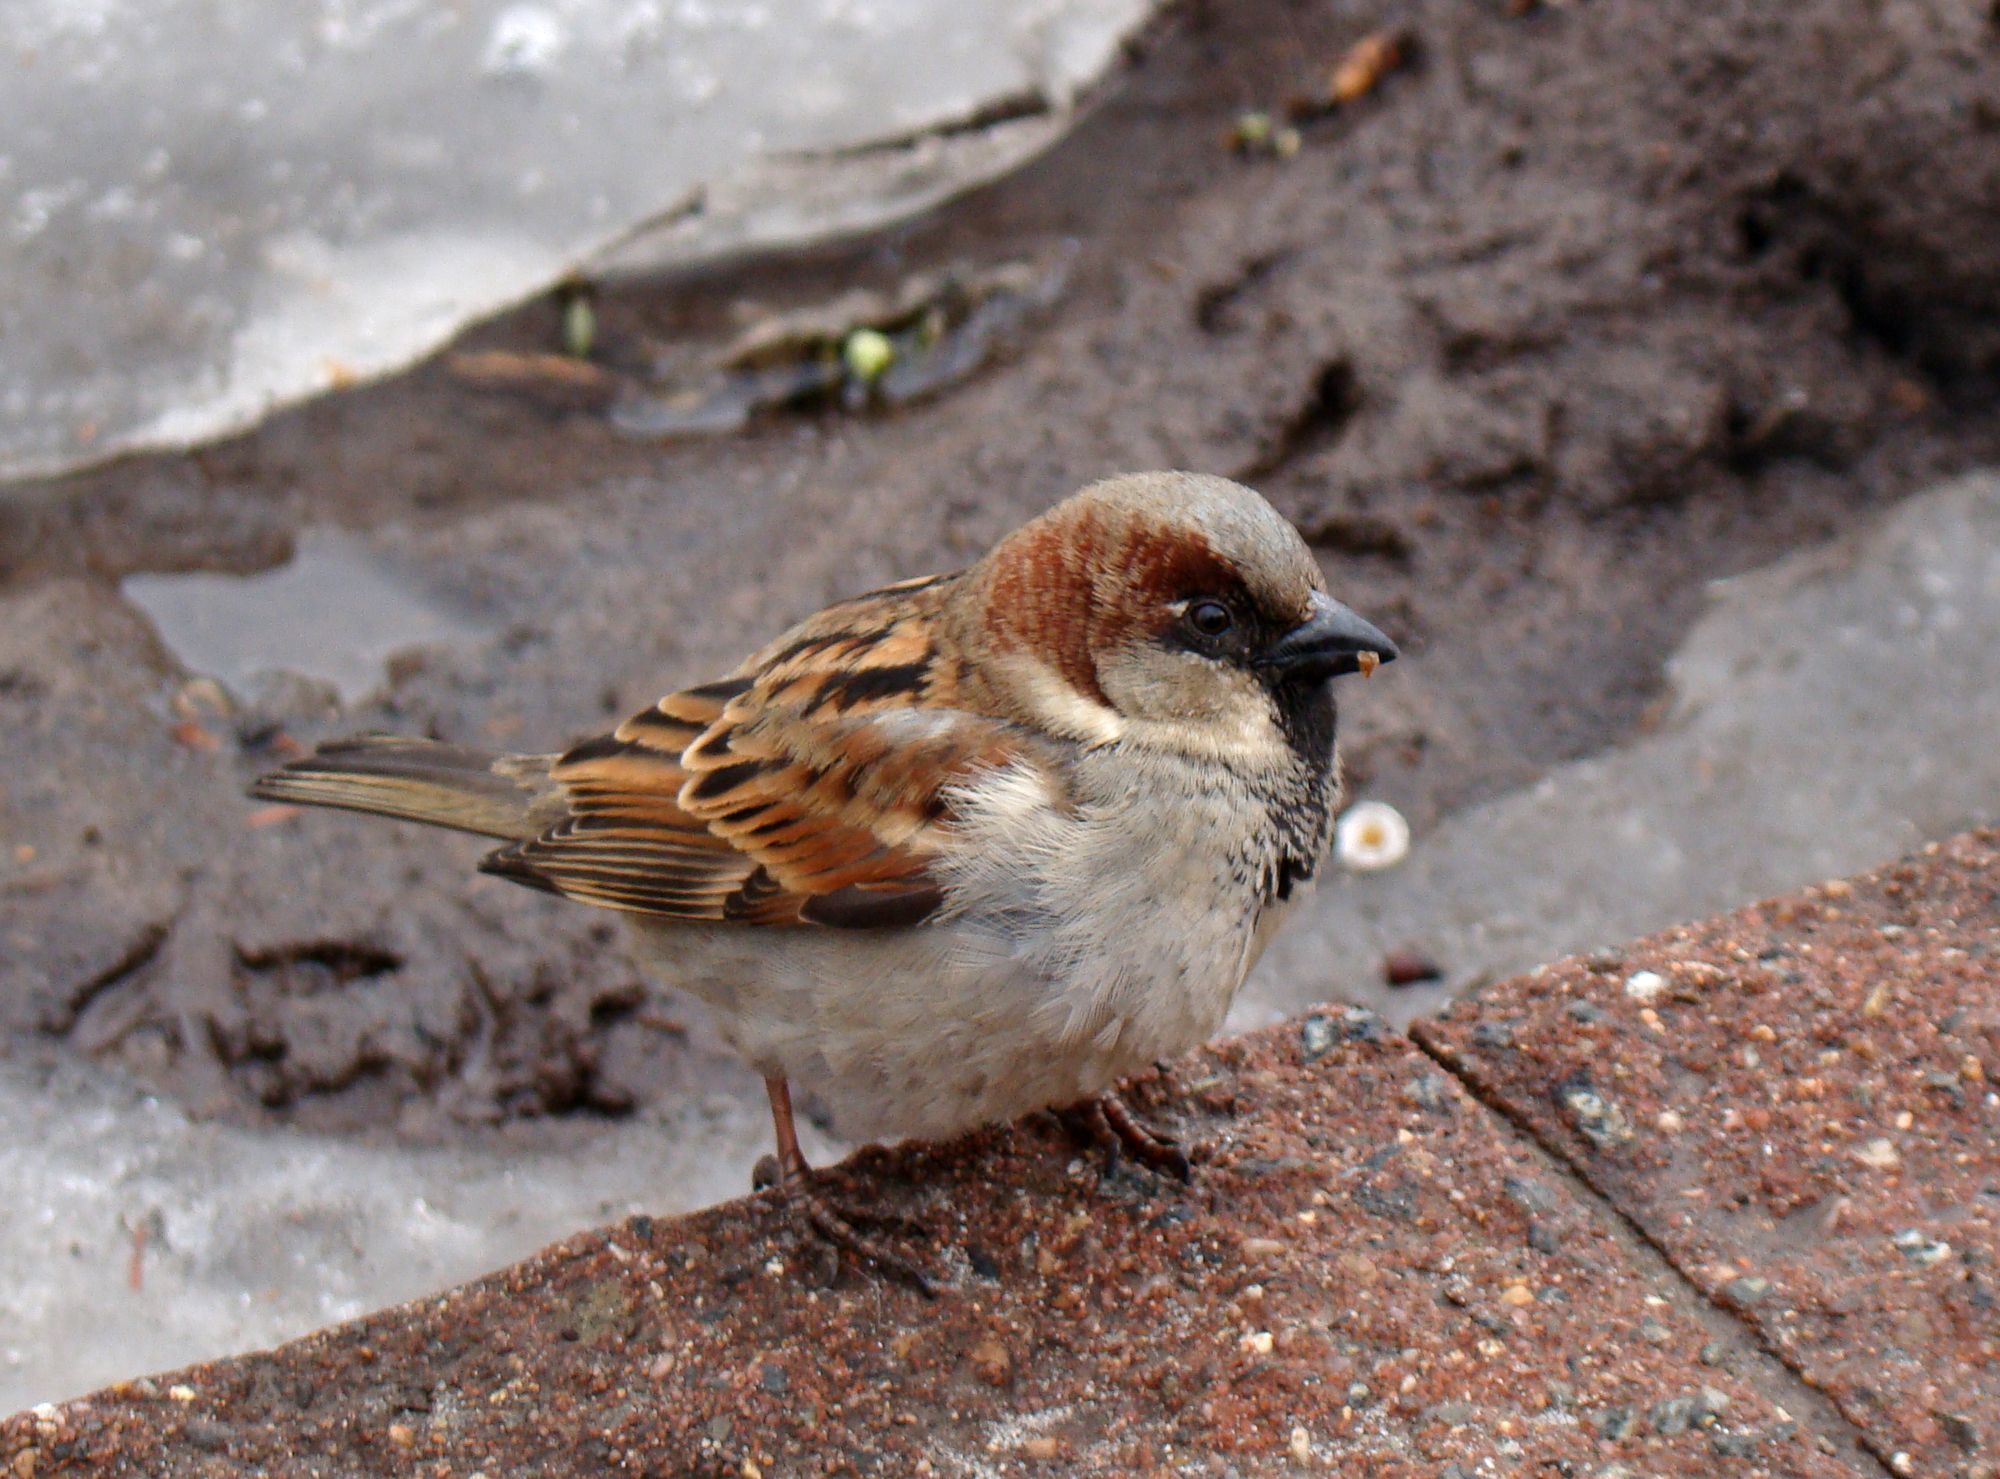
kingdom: Animalia
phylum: Chordata
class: Aves
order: Passeriformes
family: Passeridae
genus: Passer
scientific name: Passer domesticus
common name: House sparrow
